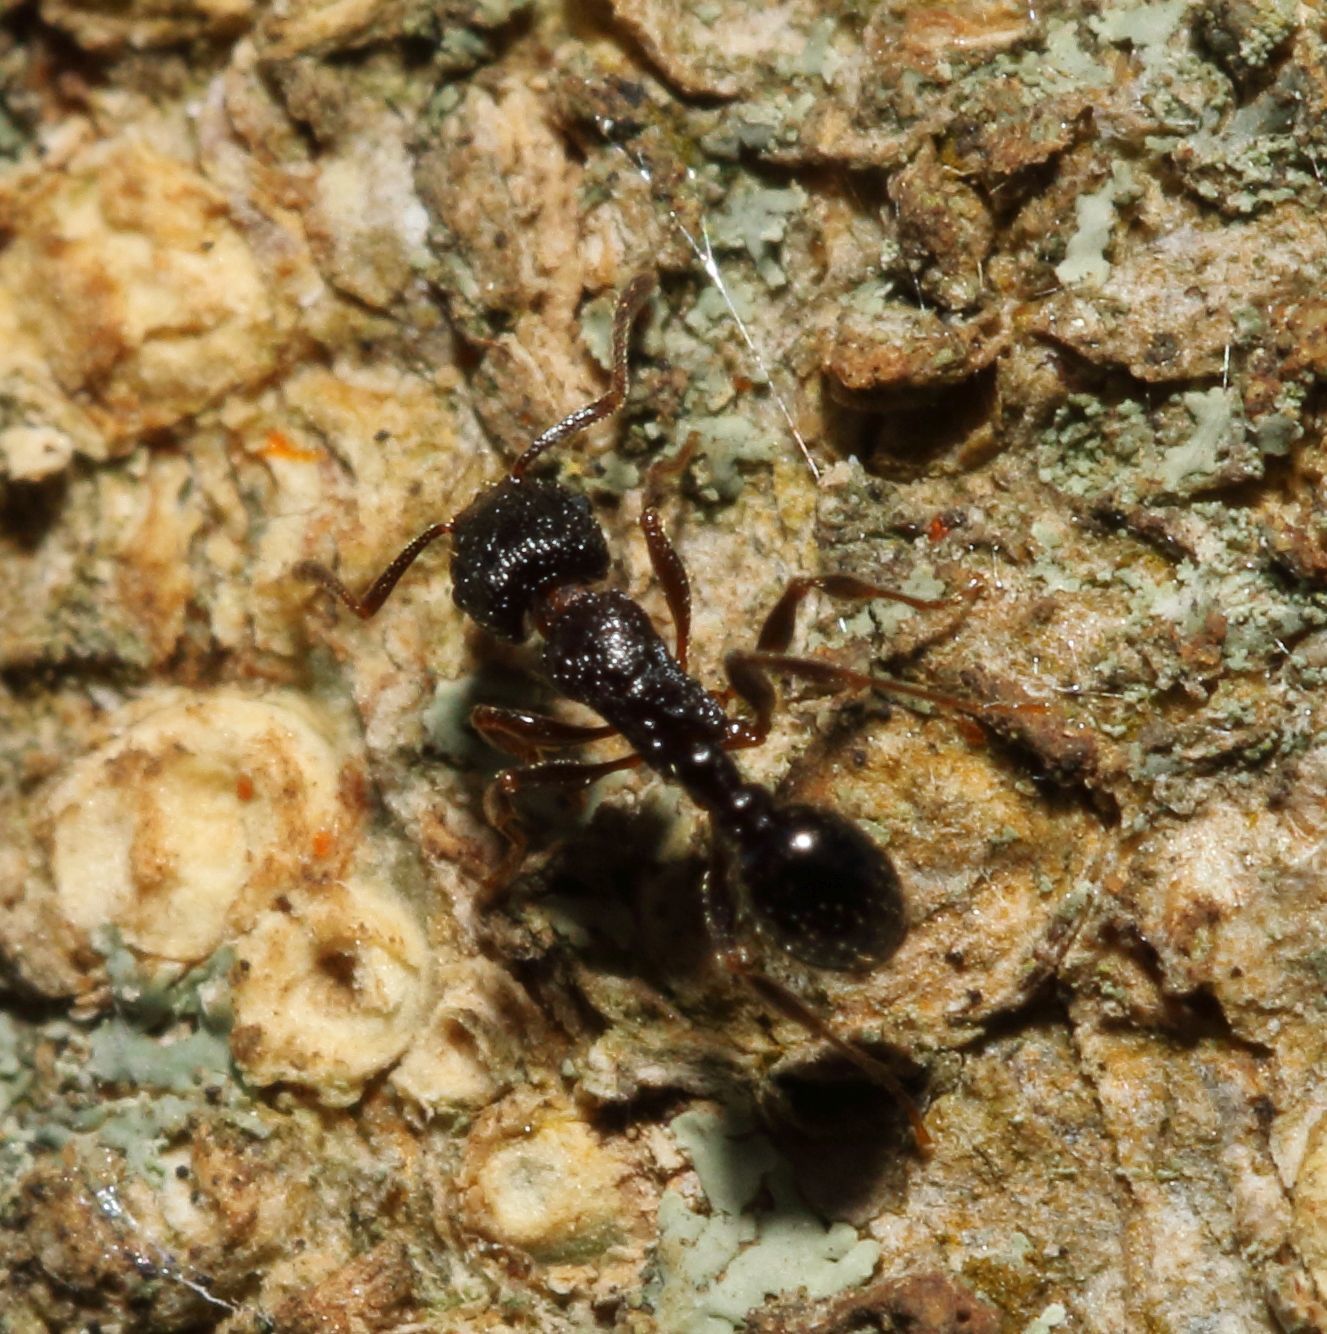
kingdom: Animalia
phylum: Arthropoda
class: Insecta
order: Hymenoptera
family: Formicidae
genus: Tetramorium
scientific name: Tetramorium grassii
